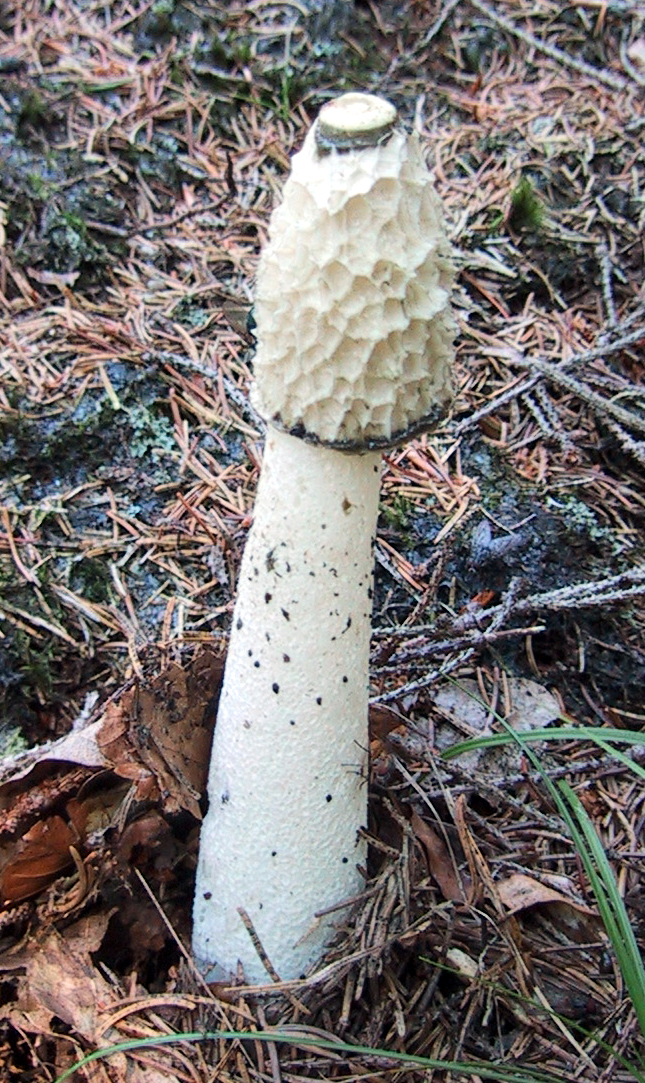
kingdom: Fungi
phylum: Basidiomycota
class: Agaricomycetes
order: Phallales
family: Phallaceae
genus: Phallus
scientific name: Phallus impudicus
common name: Common stinkhorn
